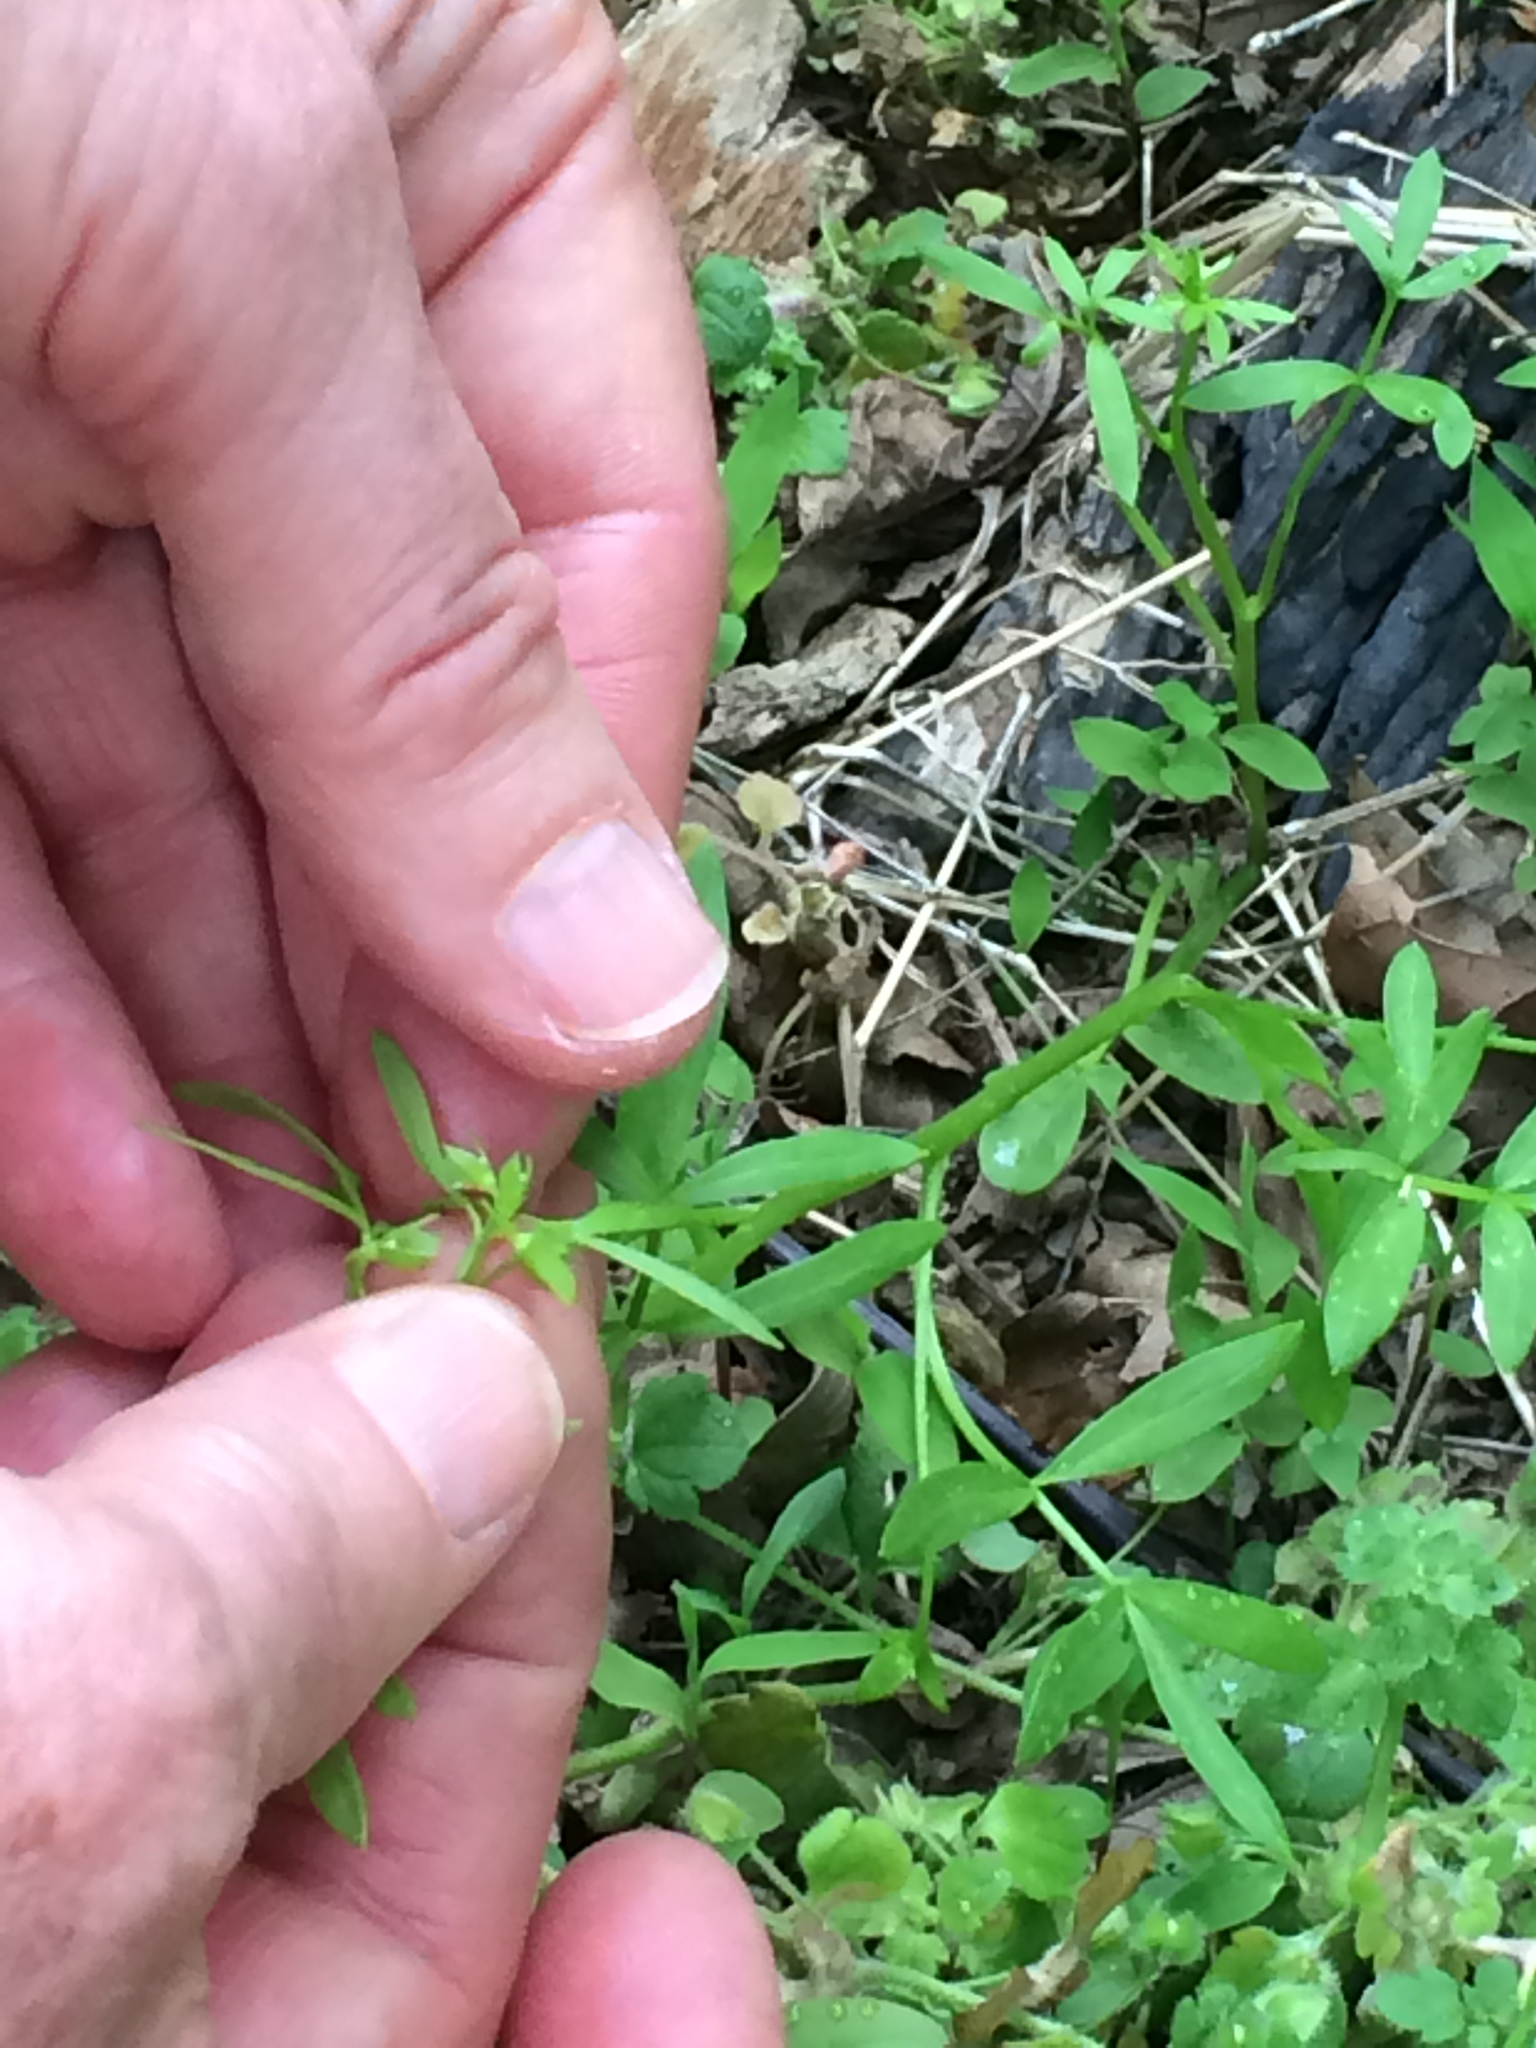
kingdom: Plantae
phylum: Tracheophyta
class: Magnoliopsida
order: Brassicales
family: Limnanthaceae
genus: Floerkea
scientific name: Floerkea proserpinacoides
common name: False mermaid
